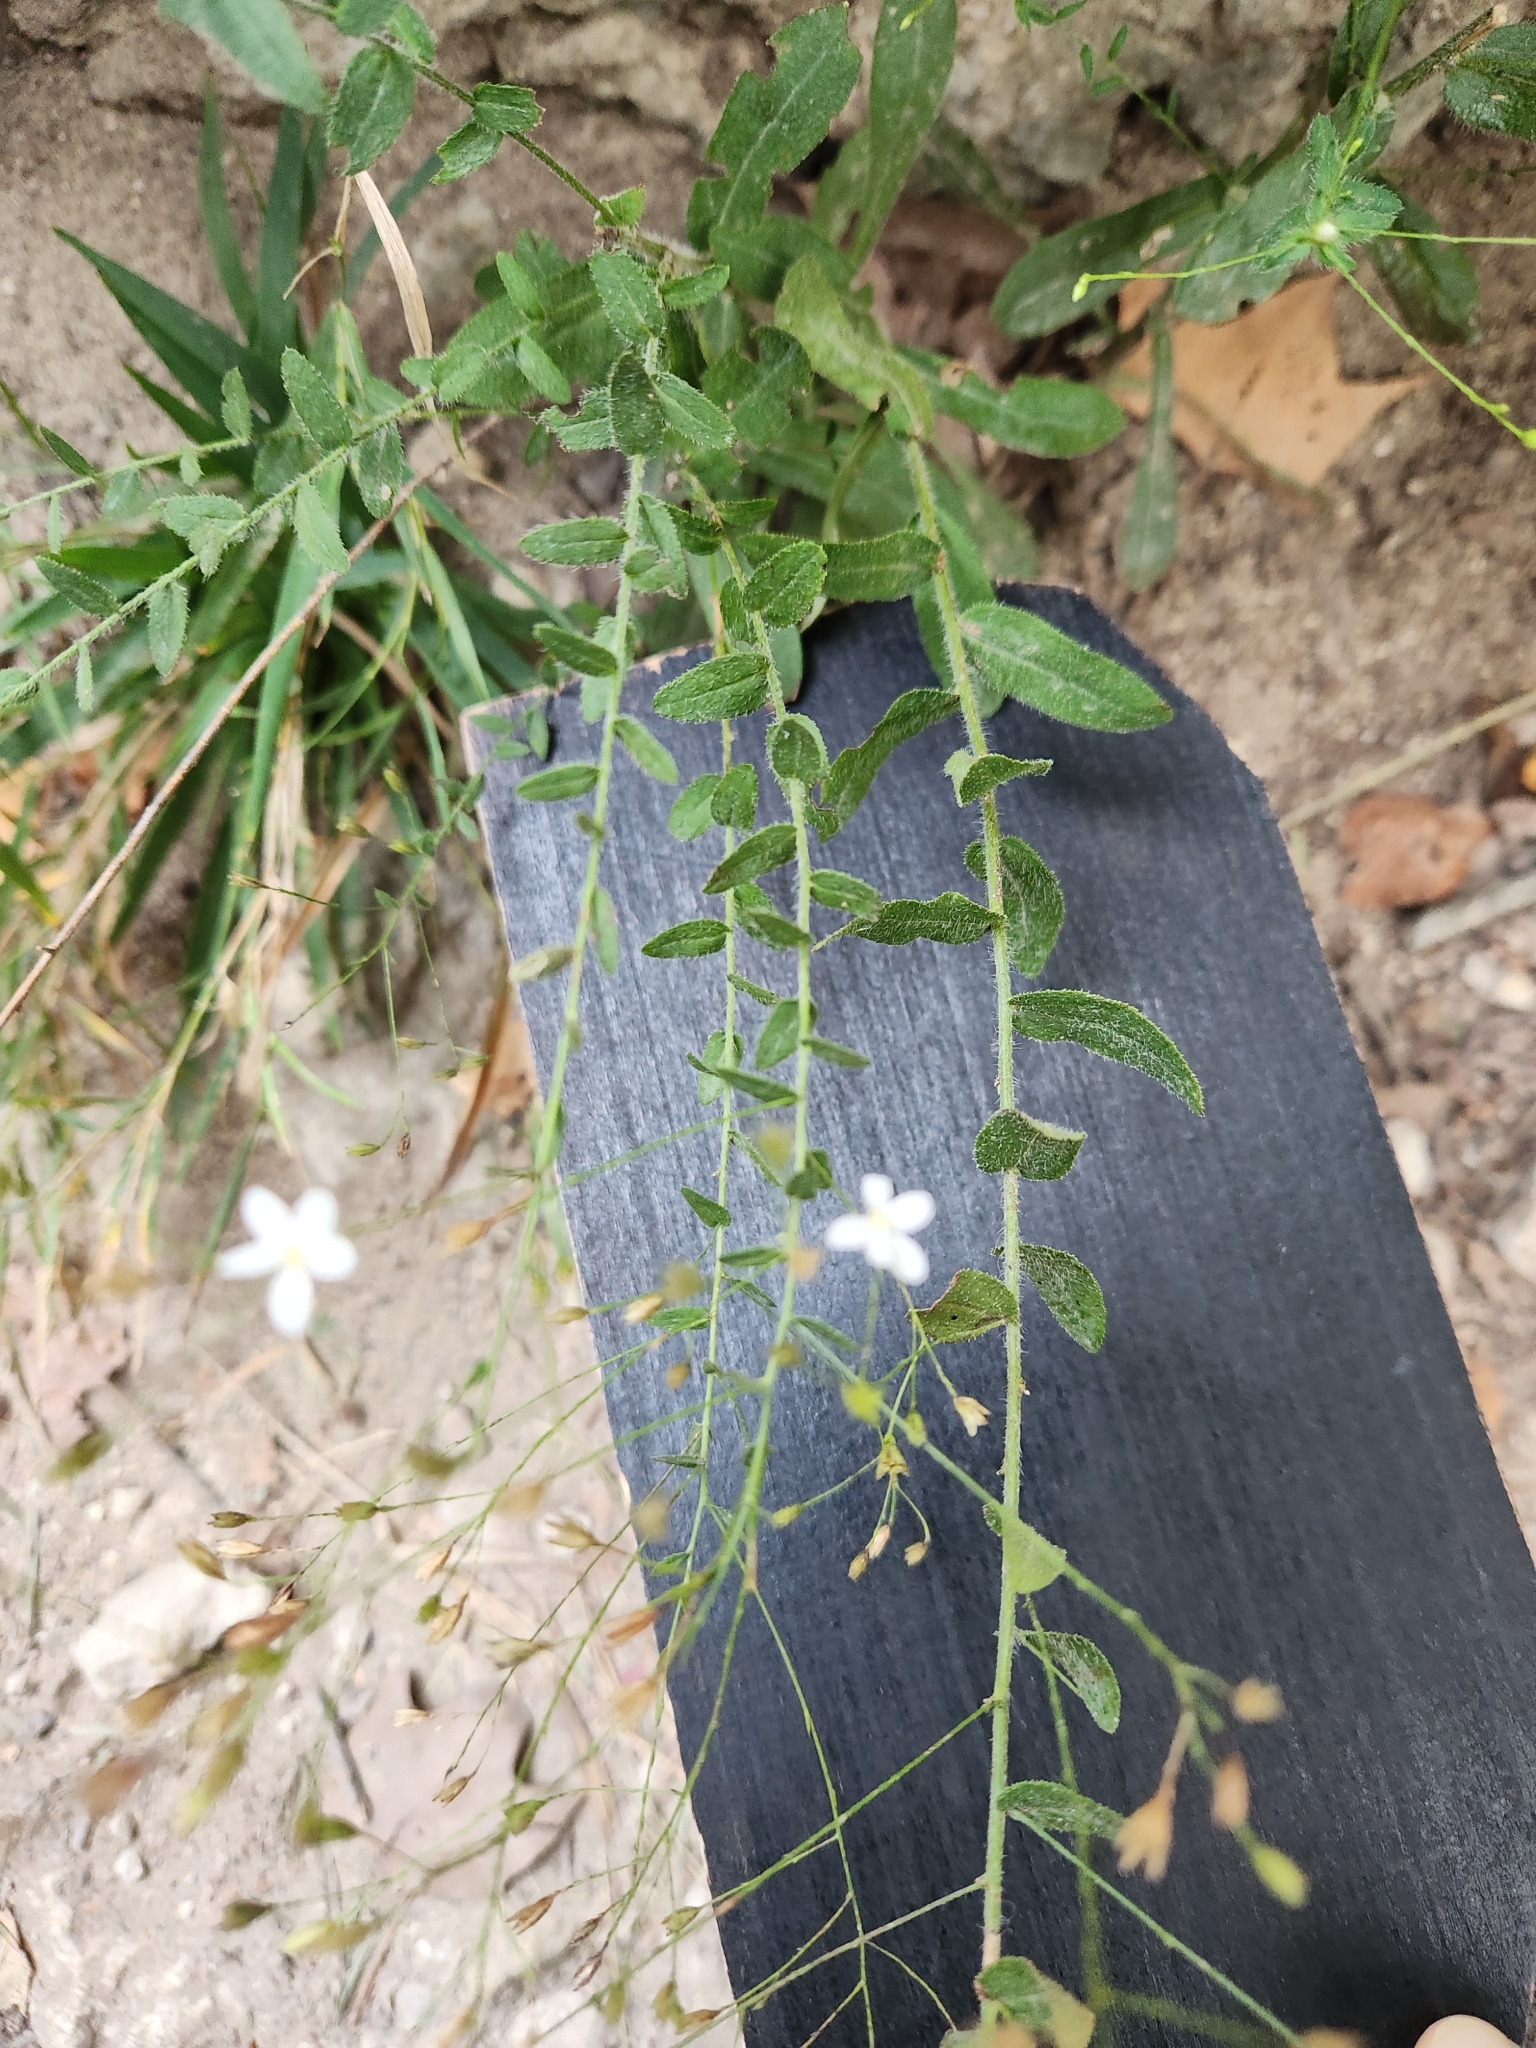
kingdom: Plantae
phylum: Tracheophyta
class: Magnoliopsida
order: Asterales
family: Asteraceae
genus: Chaetopappa
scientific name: Chaetopappa effusa
